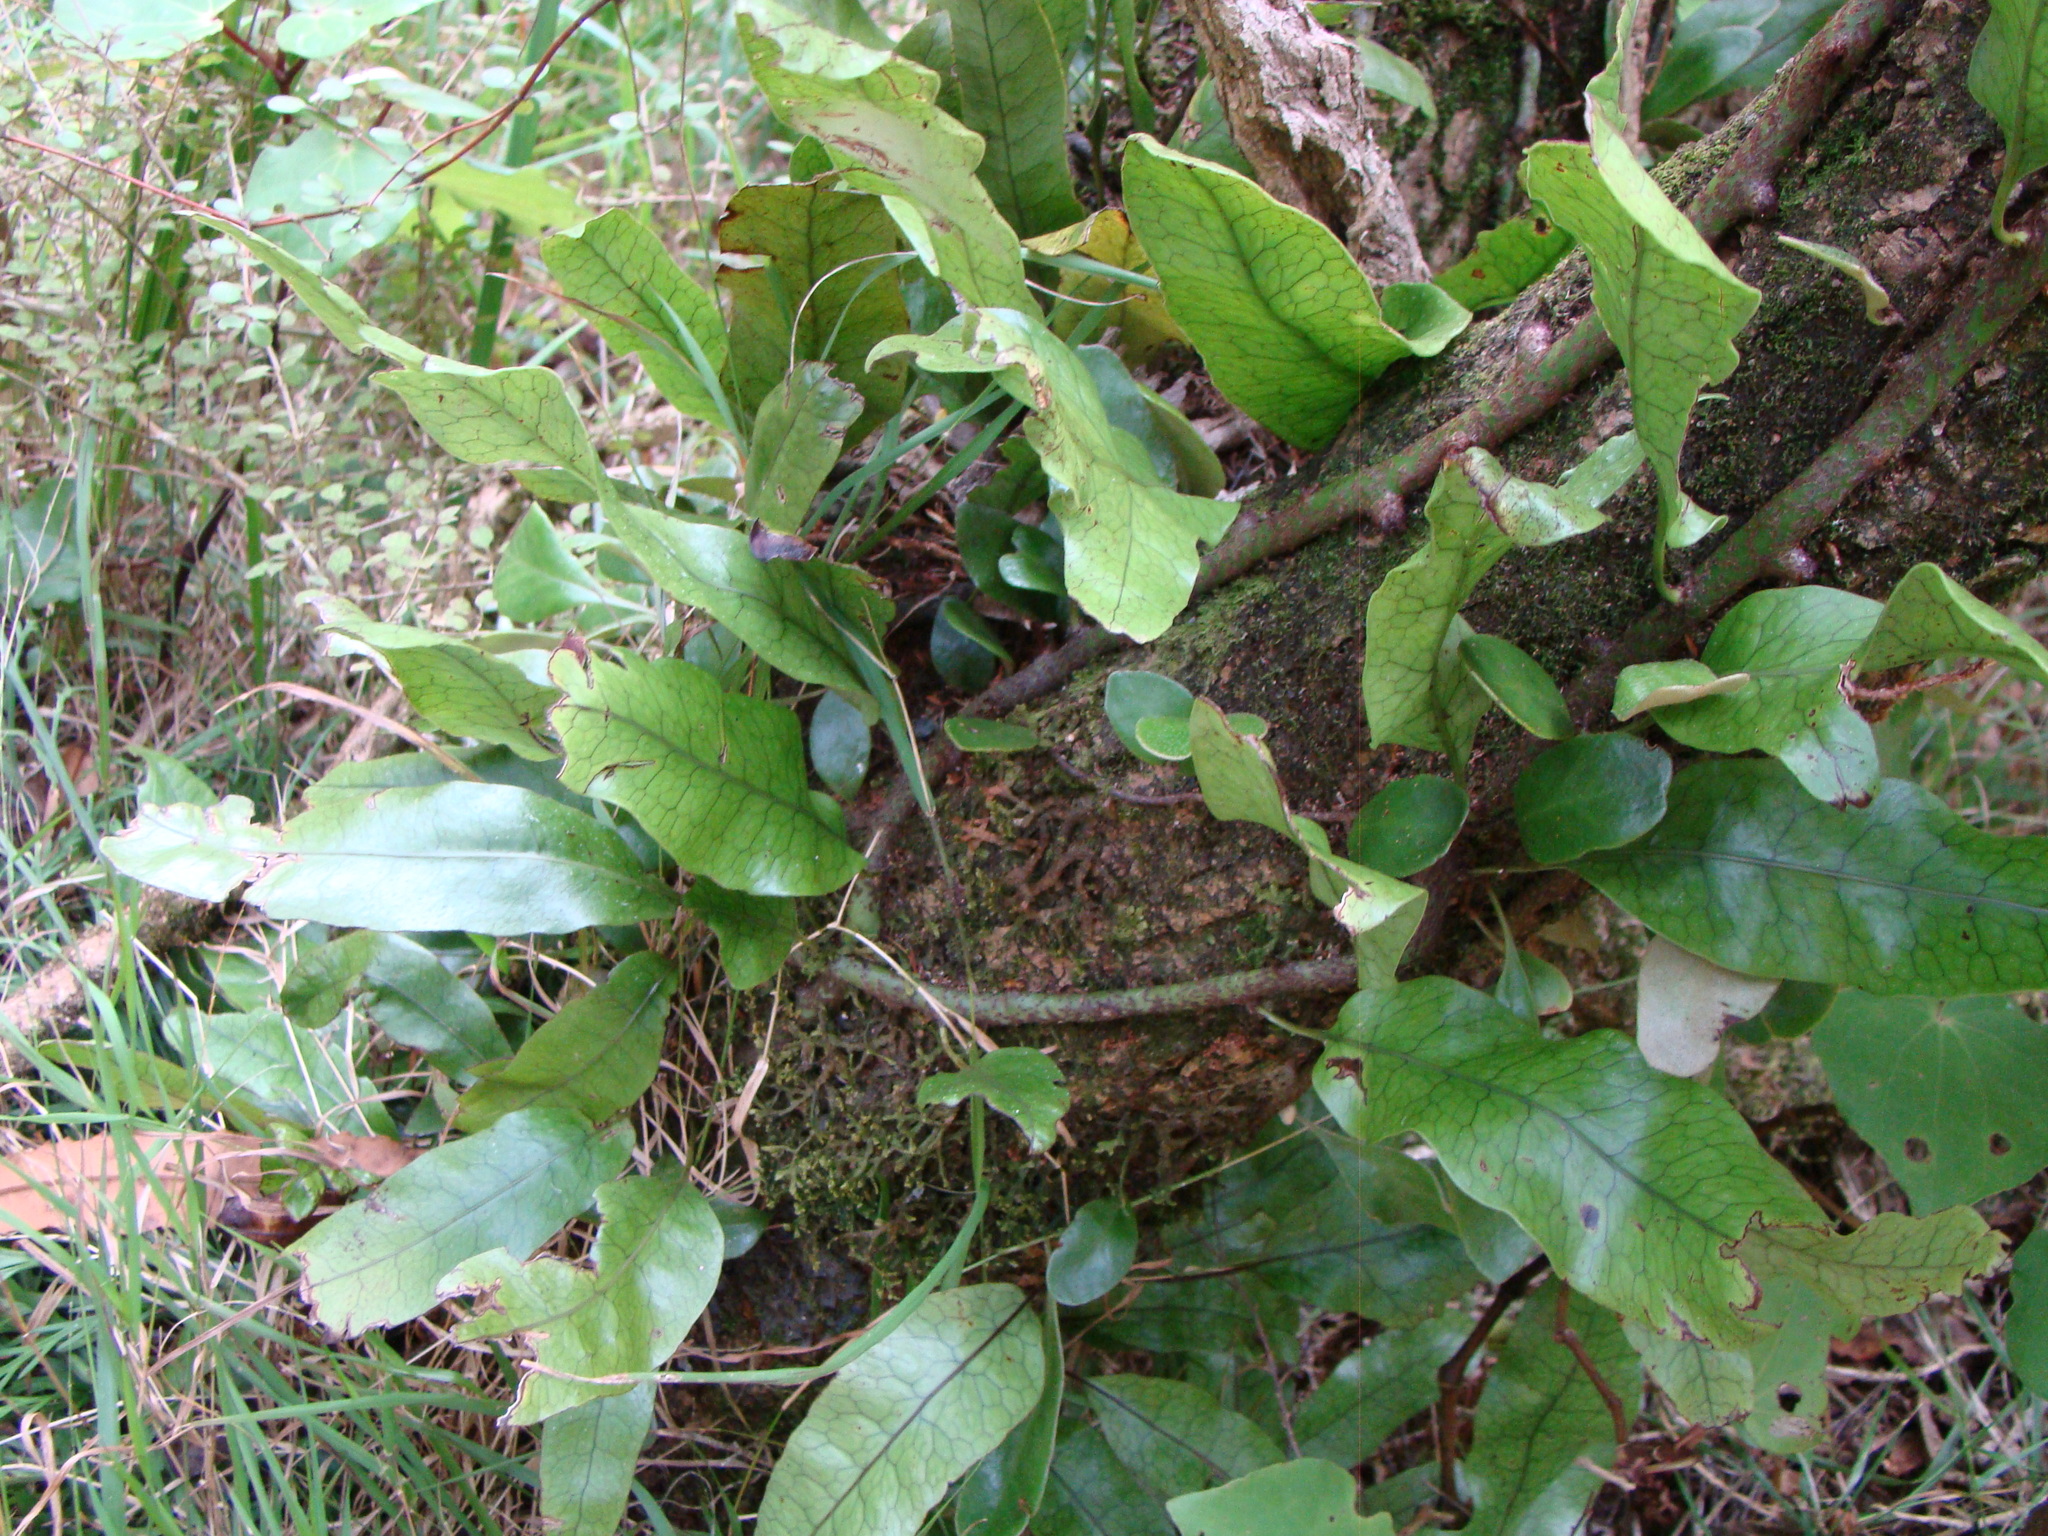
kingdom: Plantae
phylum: Tracheophyta
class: Polypodiopsida
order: Polypodiales
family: Polypodiaceae
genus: Lecanopteris
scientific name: Lecanopteris pustulata
